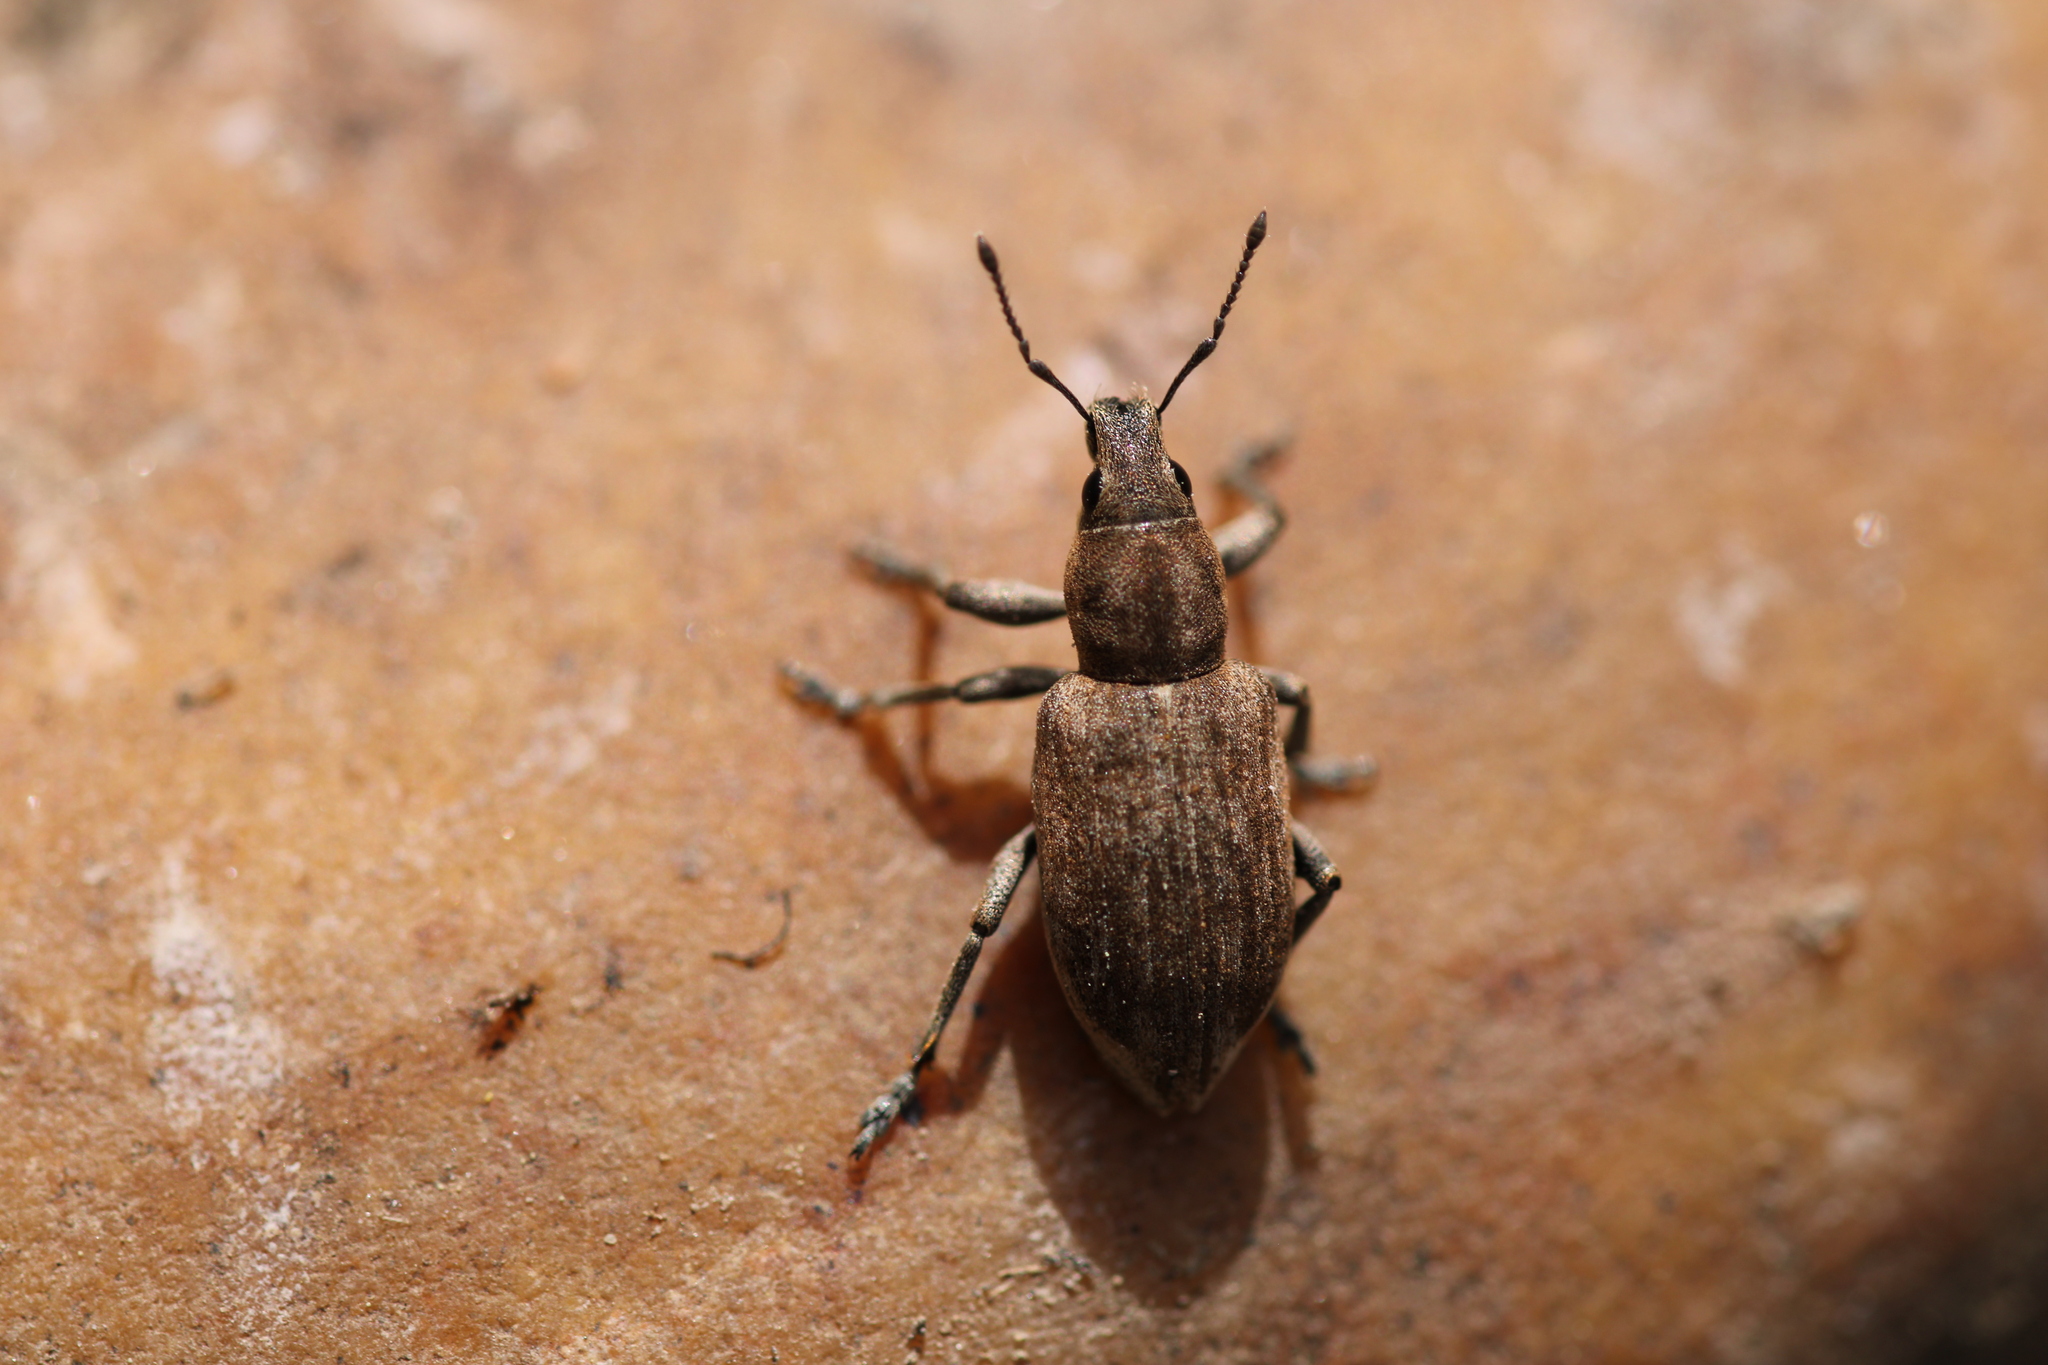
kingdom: Animalia
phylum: Arthropoda
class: Insecta
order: Coleoptera
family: Curculionidae
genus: Tanymecus
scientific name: Tanymecus palliatus
